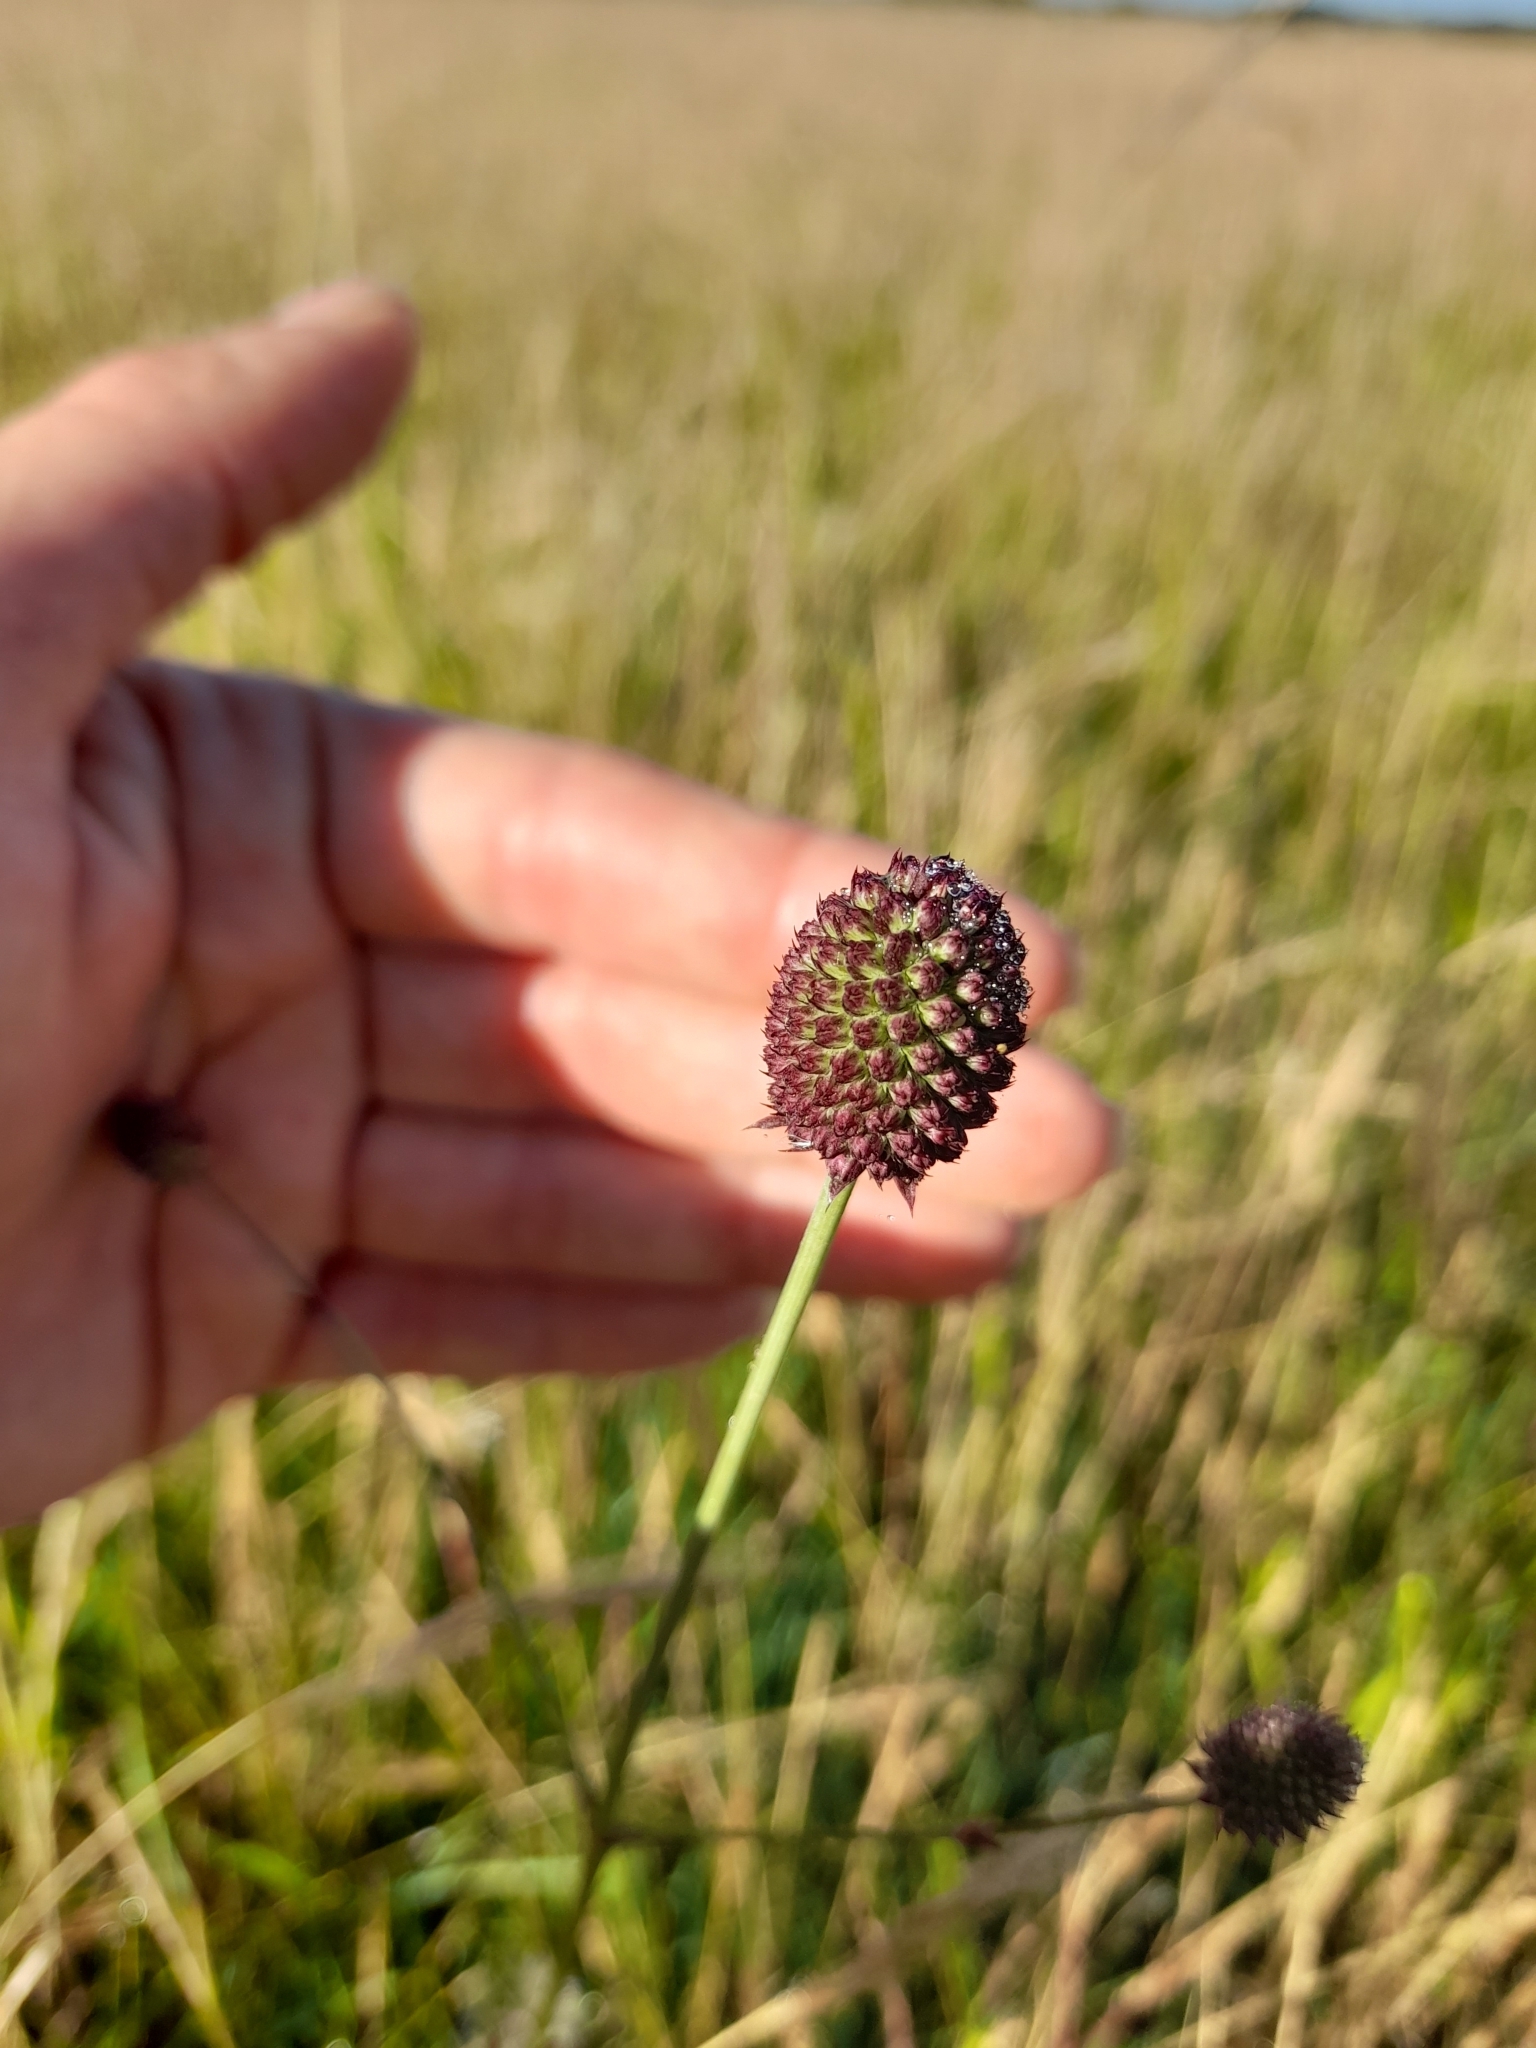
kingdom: Plantae
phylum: Tracheophyta
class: Magnoliopsida
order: Apiales
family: Apiaceae
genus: Eryngium
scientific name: Eryngium sanguisorba
